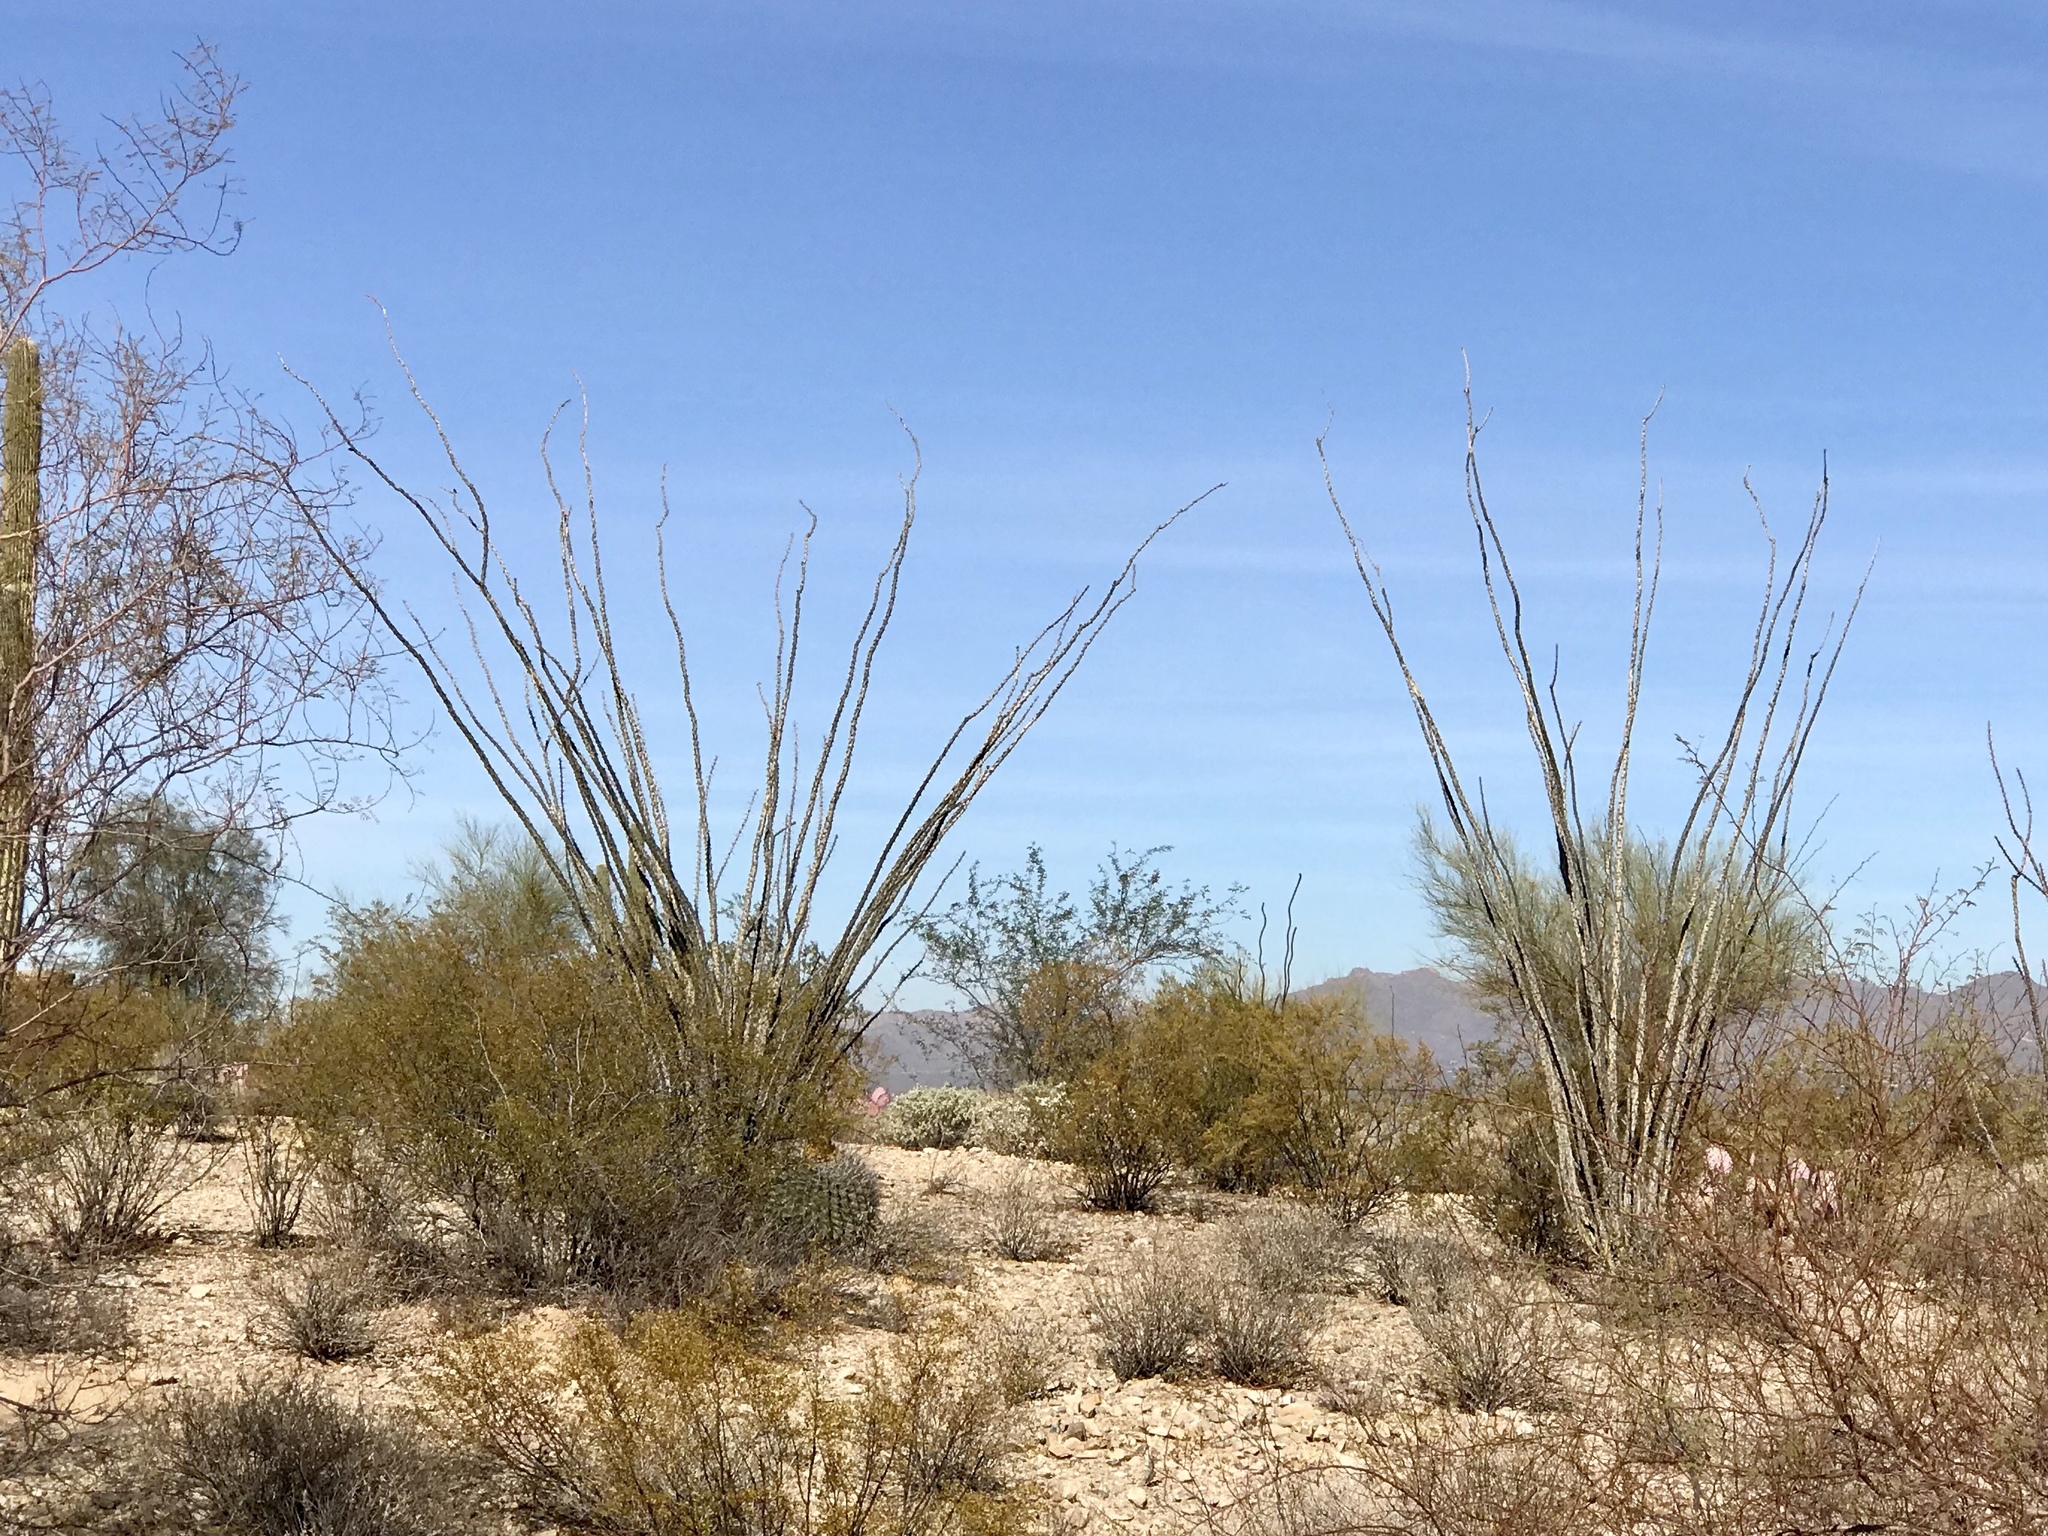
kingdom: Plantae
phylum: Tracheophyta
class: Magnoliopsida
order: Ericales
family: Fouquieriaceae
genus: Fouquieria
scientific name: Fouquieria splendens
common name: Vine-cactus
